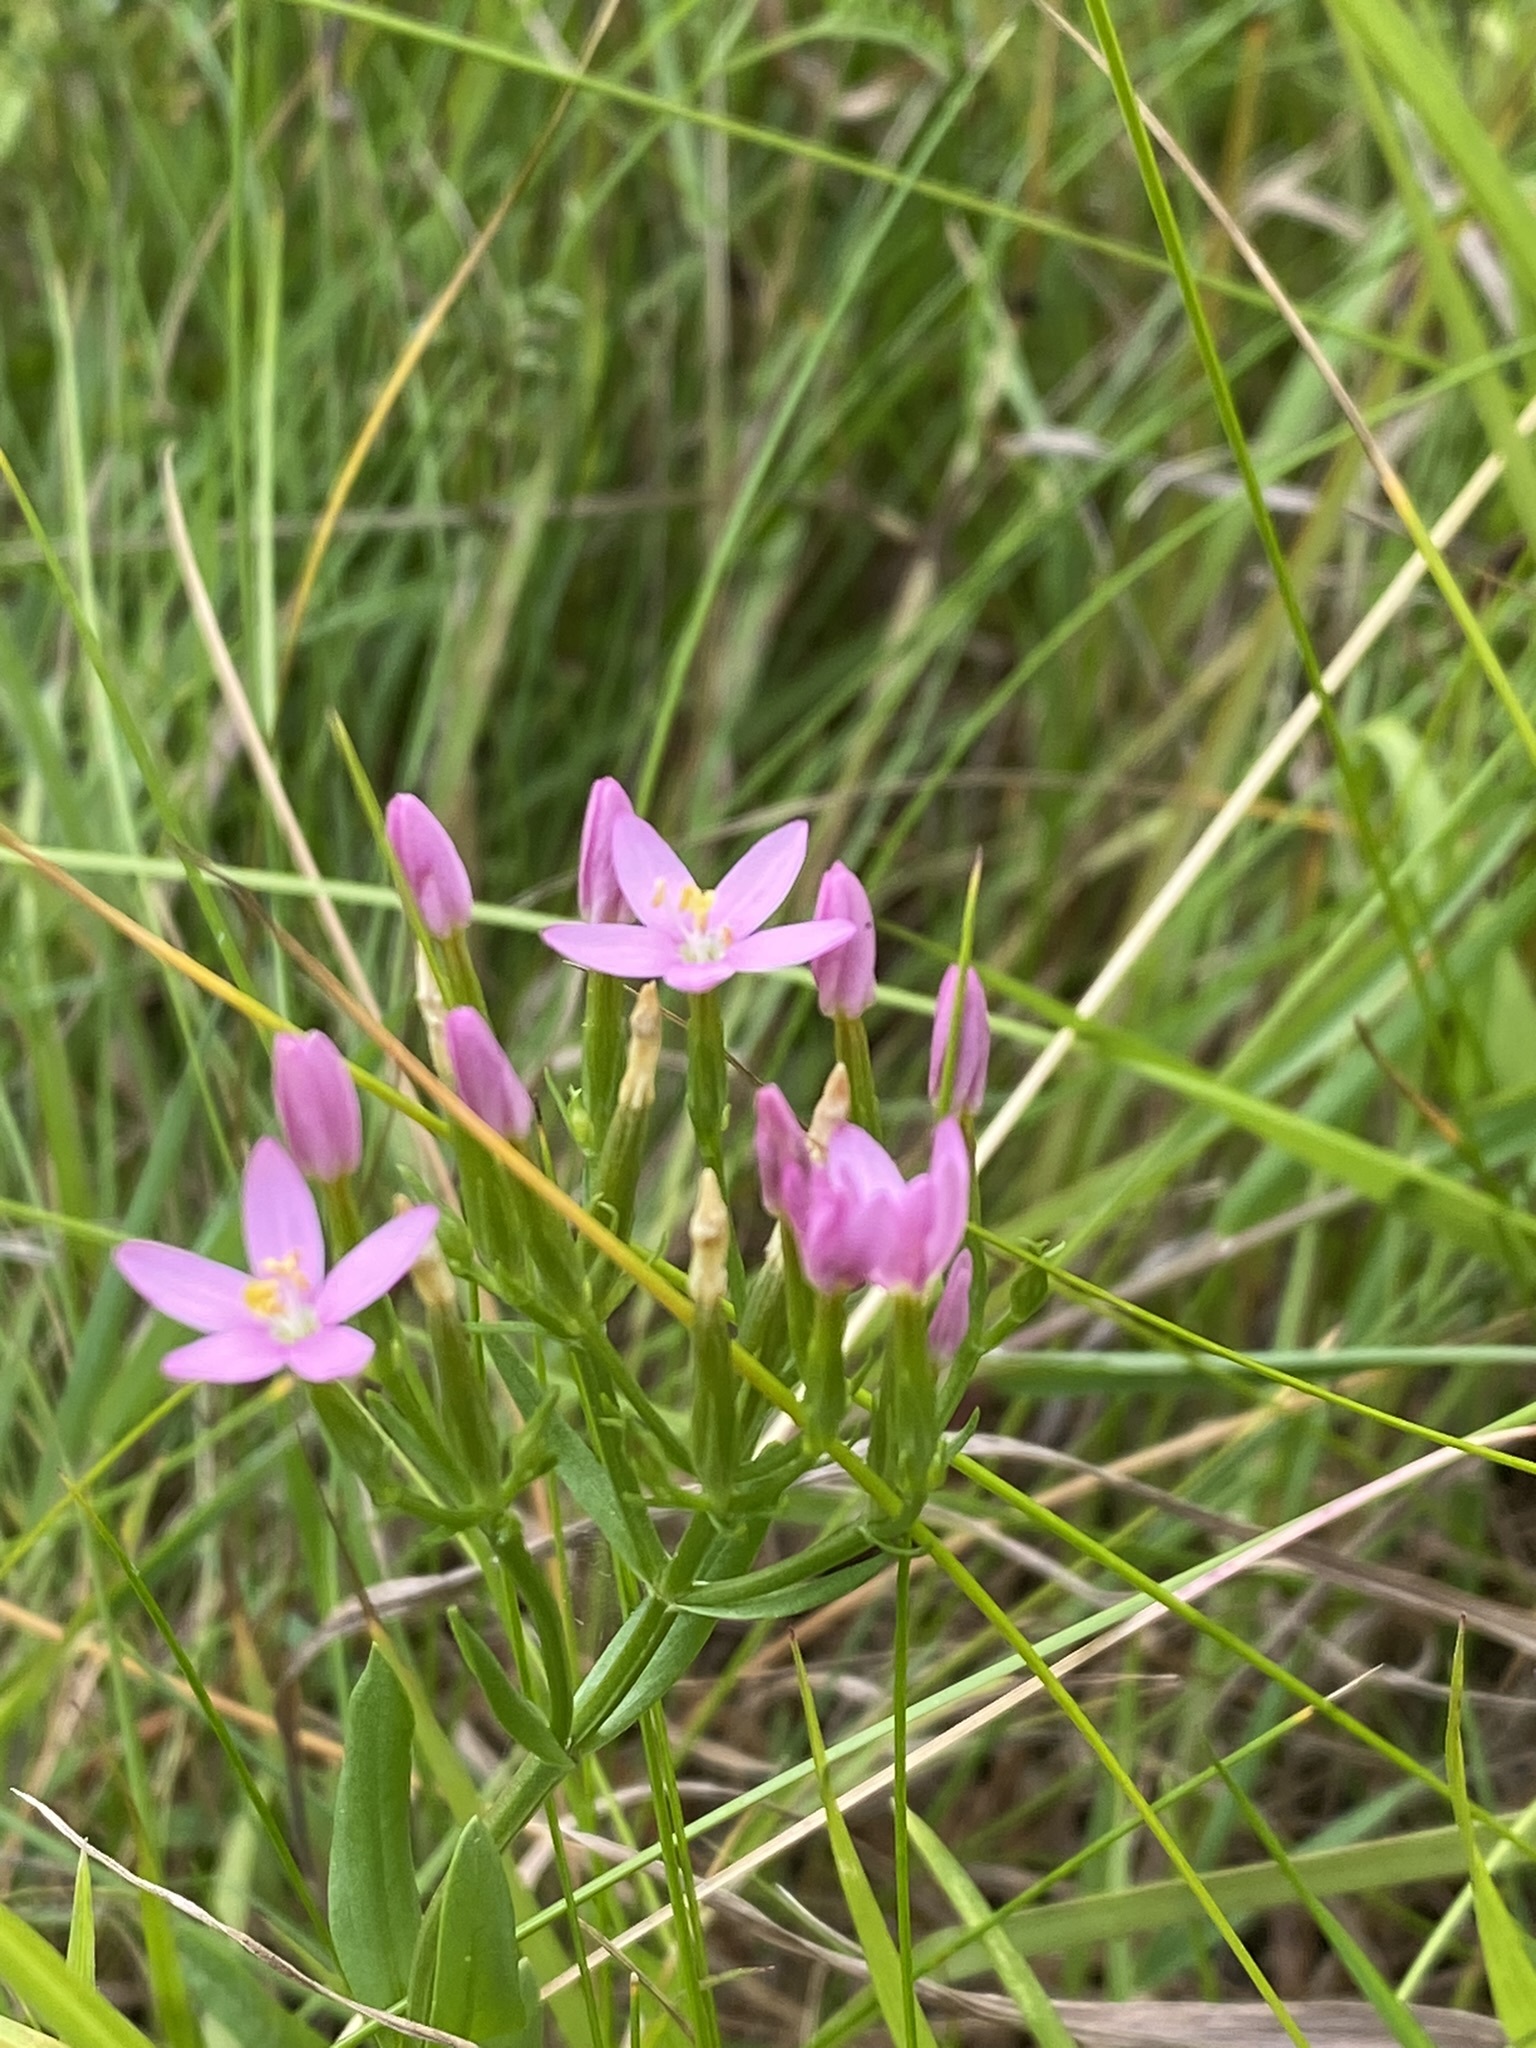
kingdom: Plantae
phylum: Tracheophyta
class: Magnoliopsida
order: Gentianales
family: Gentianaceae
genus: Centaurium
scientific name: Centaurium erythraea
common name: Common centaury
